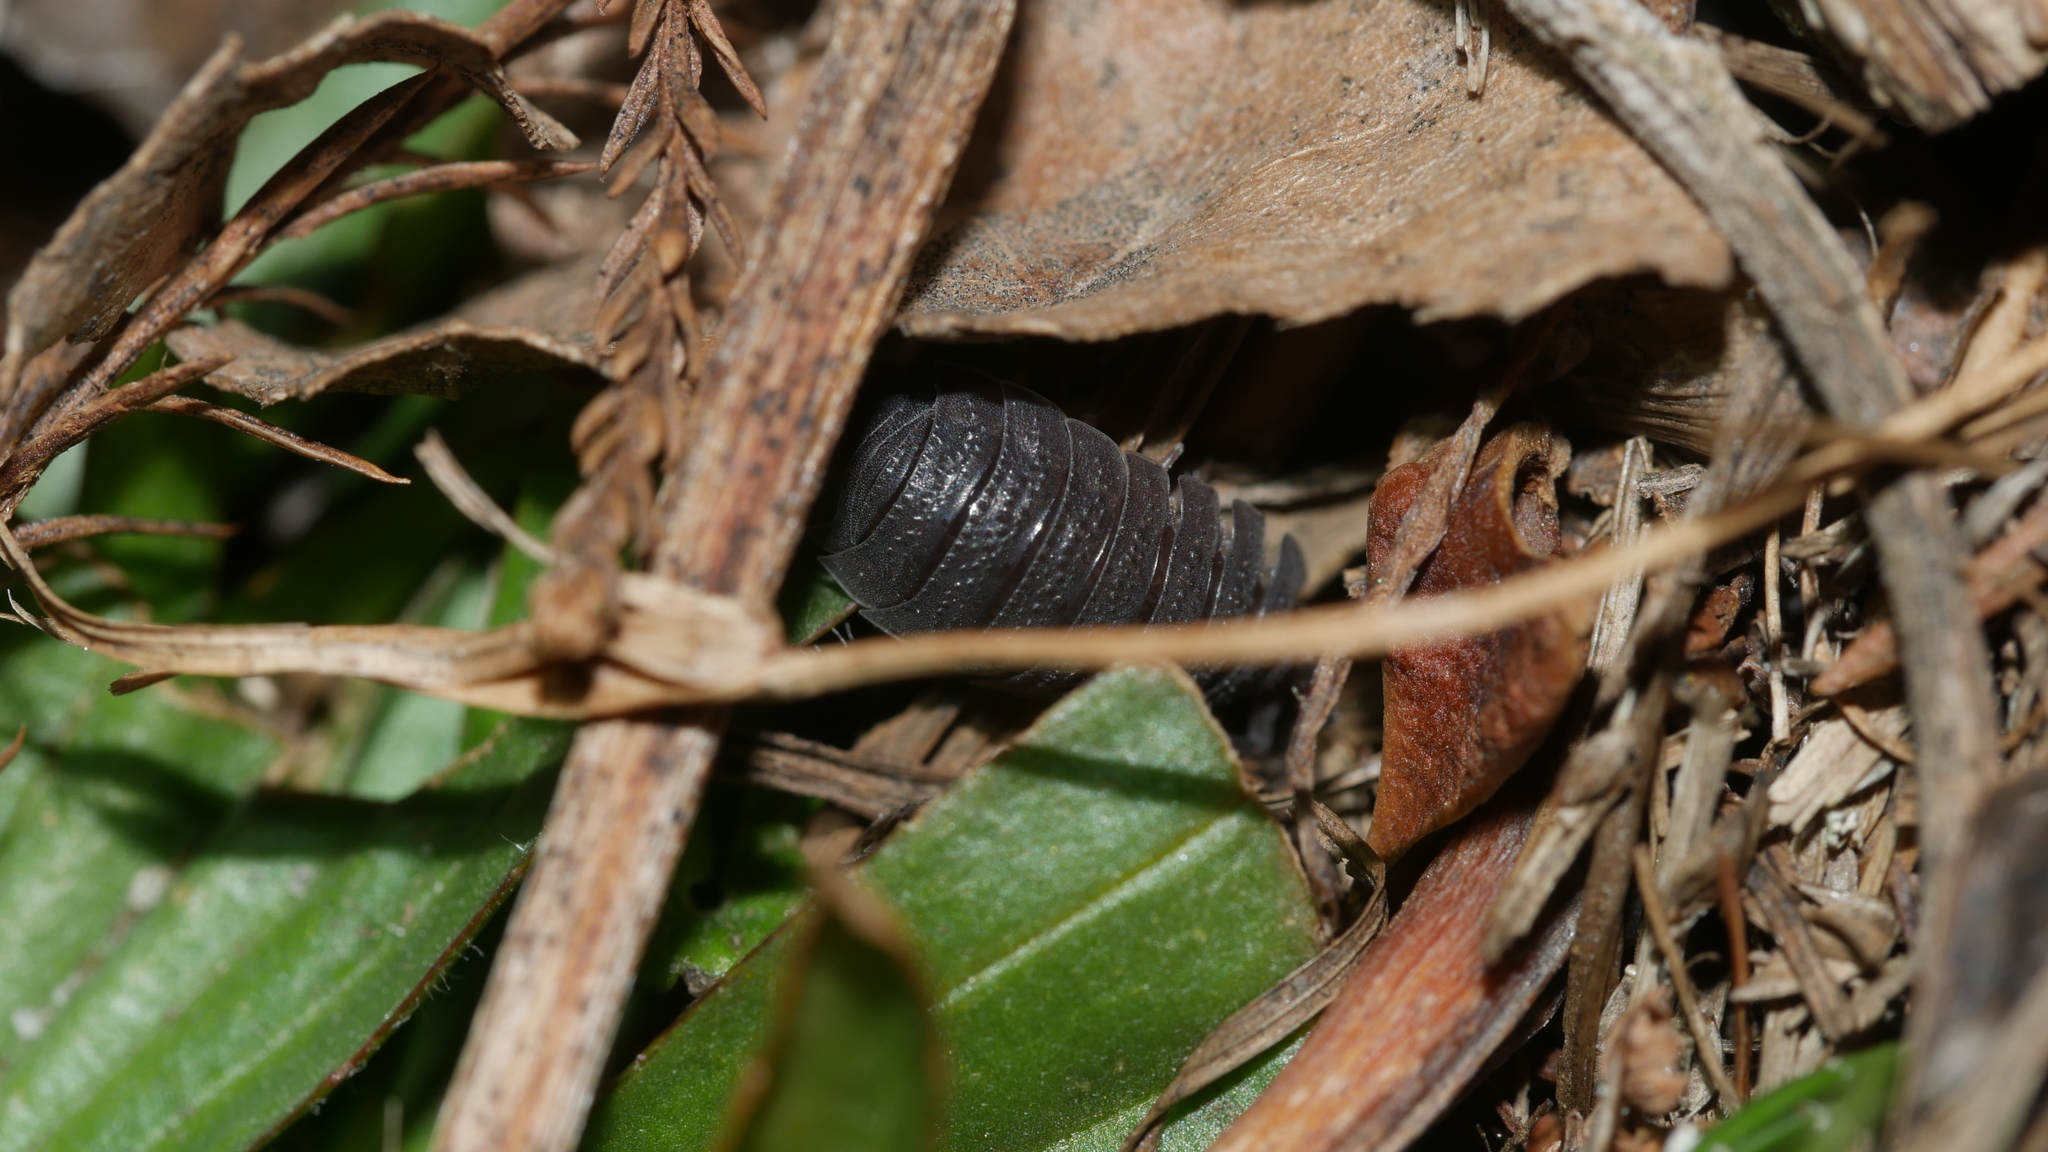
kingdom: Animalia
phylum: Arthropoda
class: Malacostraca
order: Isopoda
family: Porcellionidae
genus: Porcellio
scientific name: Porcellio scaber
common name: Common rough woodlouse
